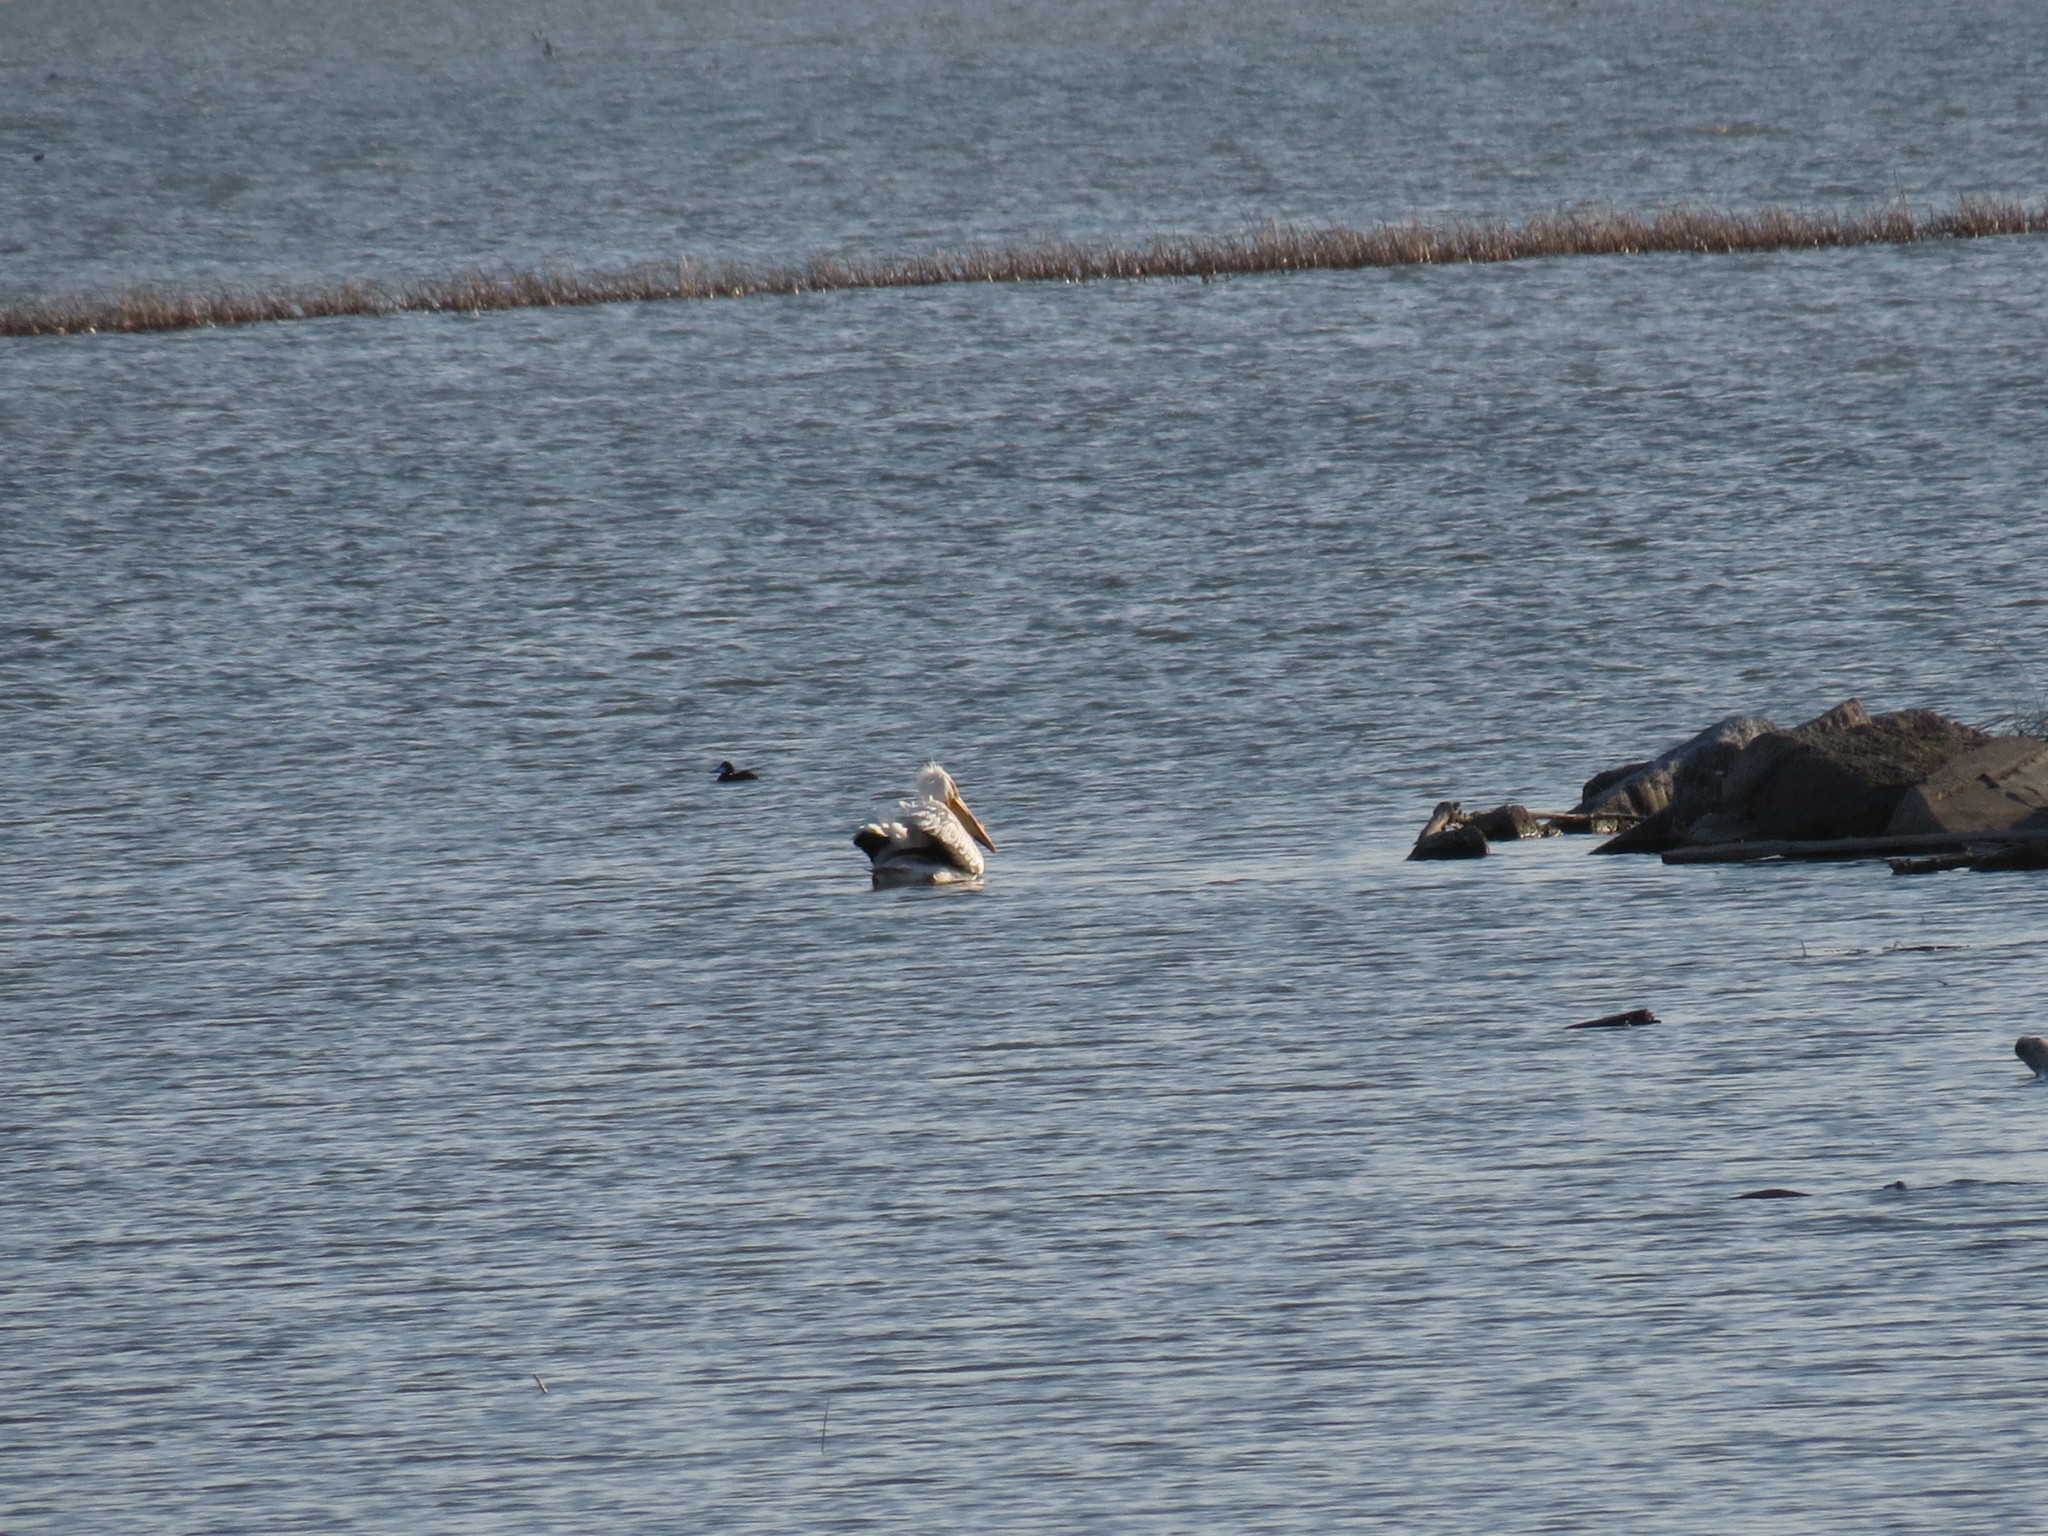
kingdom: Animalia
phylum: Chordata
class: Aves
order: Pelecaniformes
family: Pelecanidae
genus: Pelecanus
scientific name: Pelecanus erythrorhynchos
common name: American white pelican
